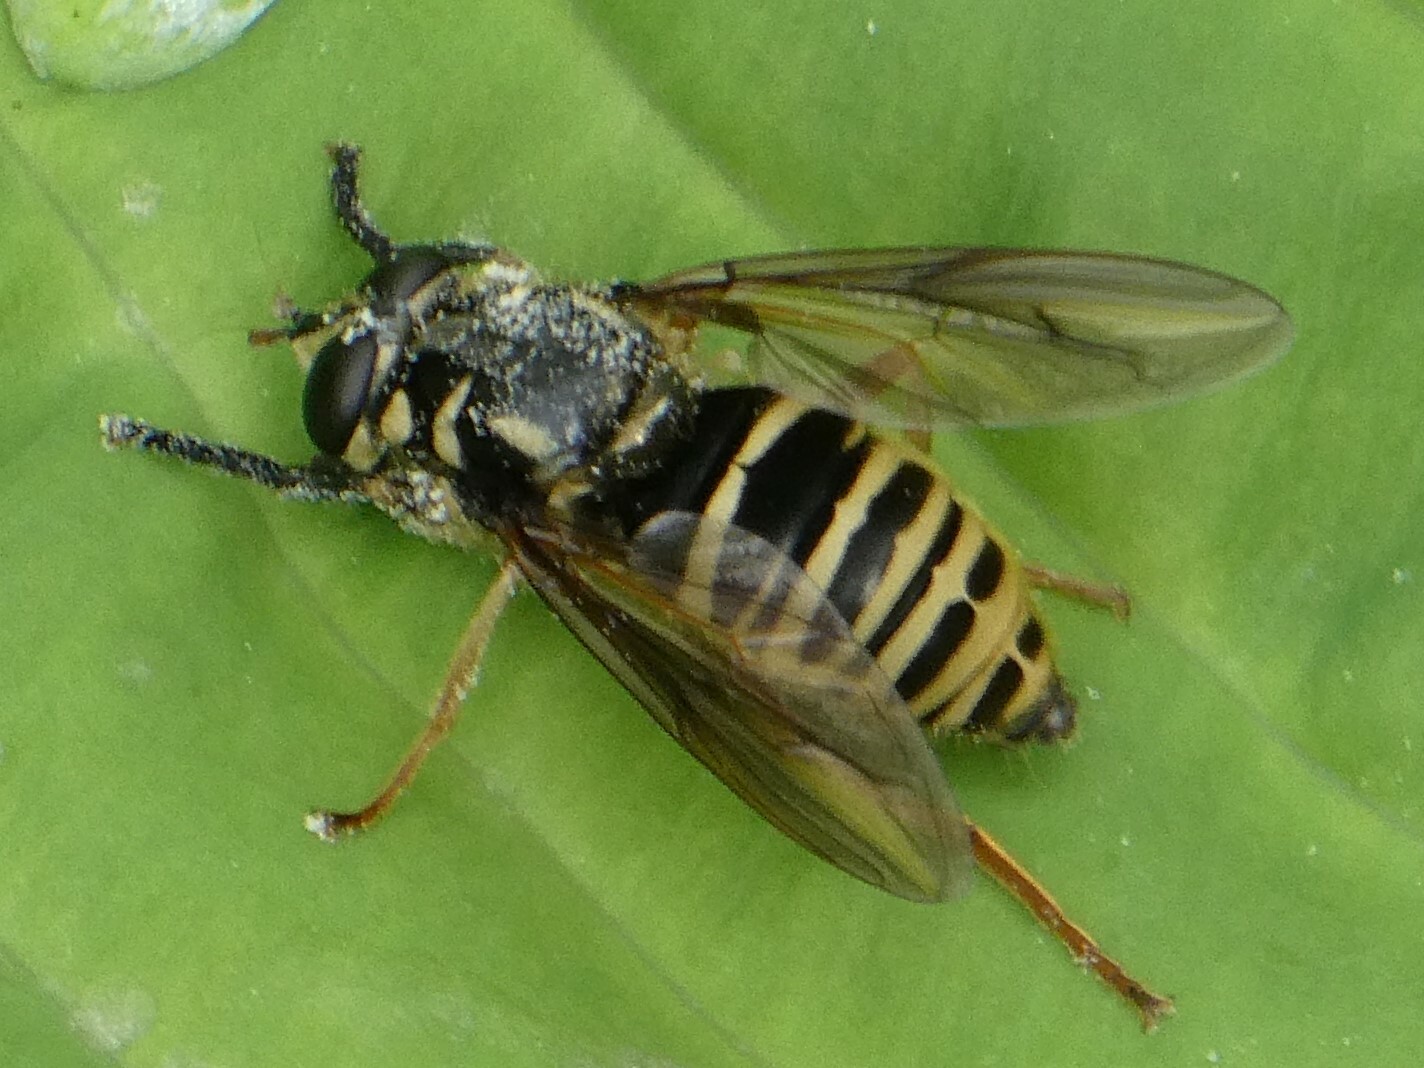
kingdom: Animalia
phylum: Arthropoda
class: Insecta
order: Diptera
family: Syrphidae
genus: Temnostoma
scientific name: Temnostoma excentricum
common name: Black-spotted falsehorn
